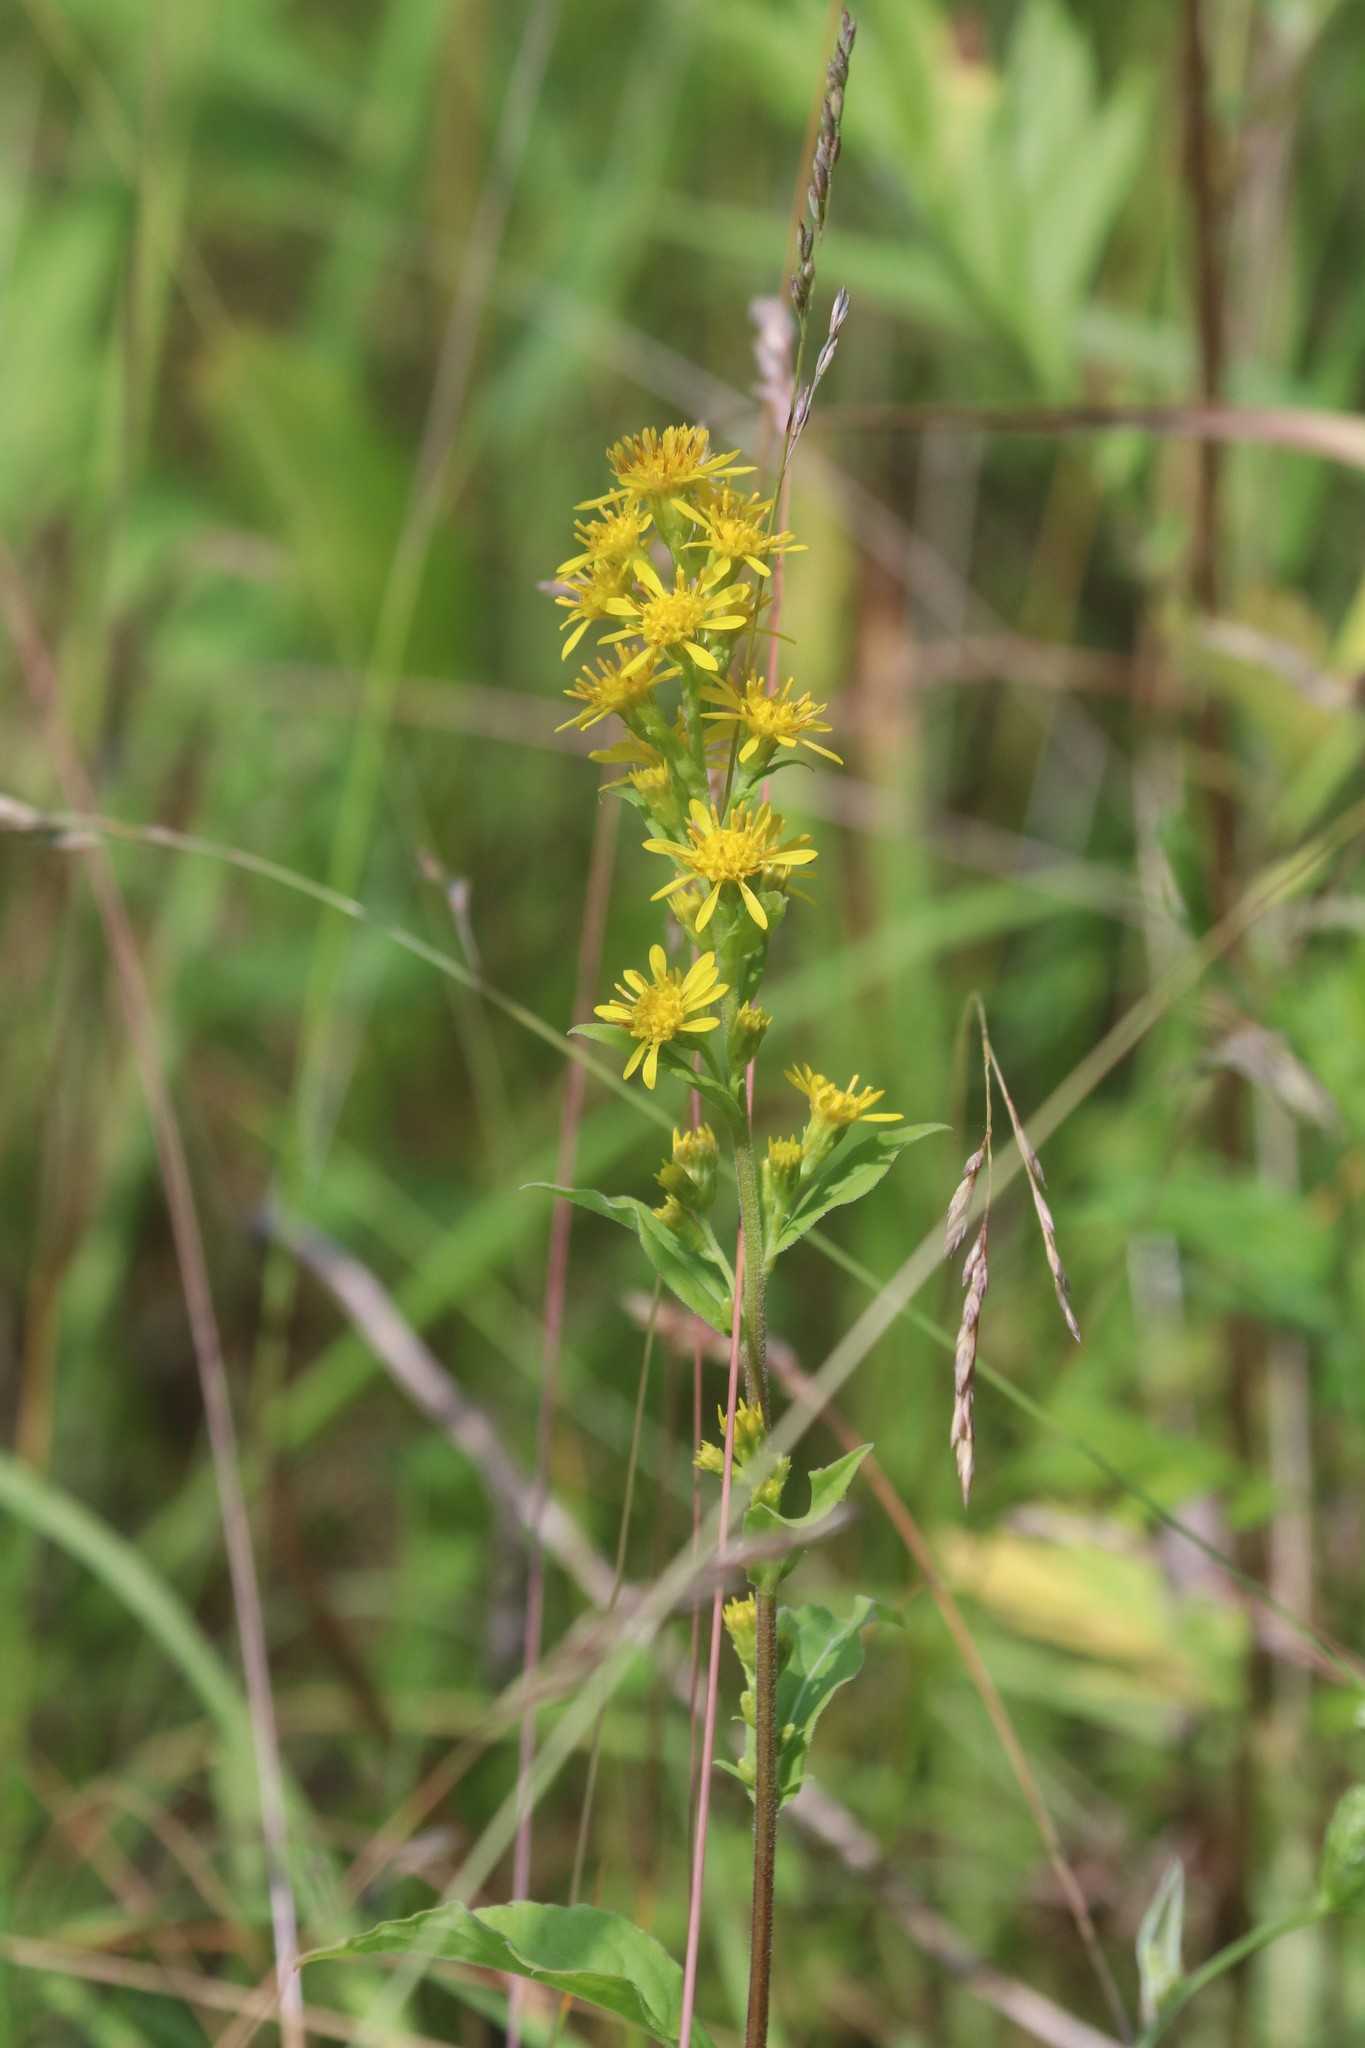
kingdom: Plantae
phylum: Tracheophyta
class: Magnoliopsida
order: Asterales
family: Asteraceae
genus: Solidago
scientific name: Solidago virgaurea
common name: Goldenrod
